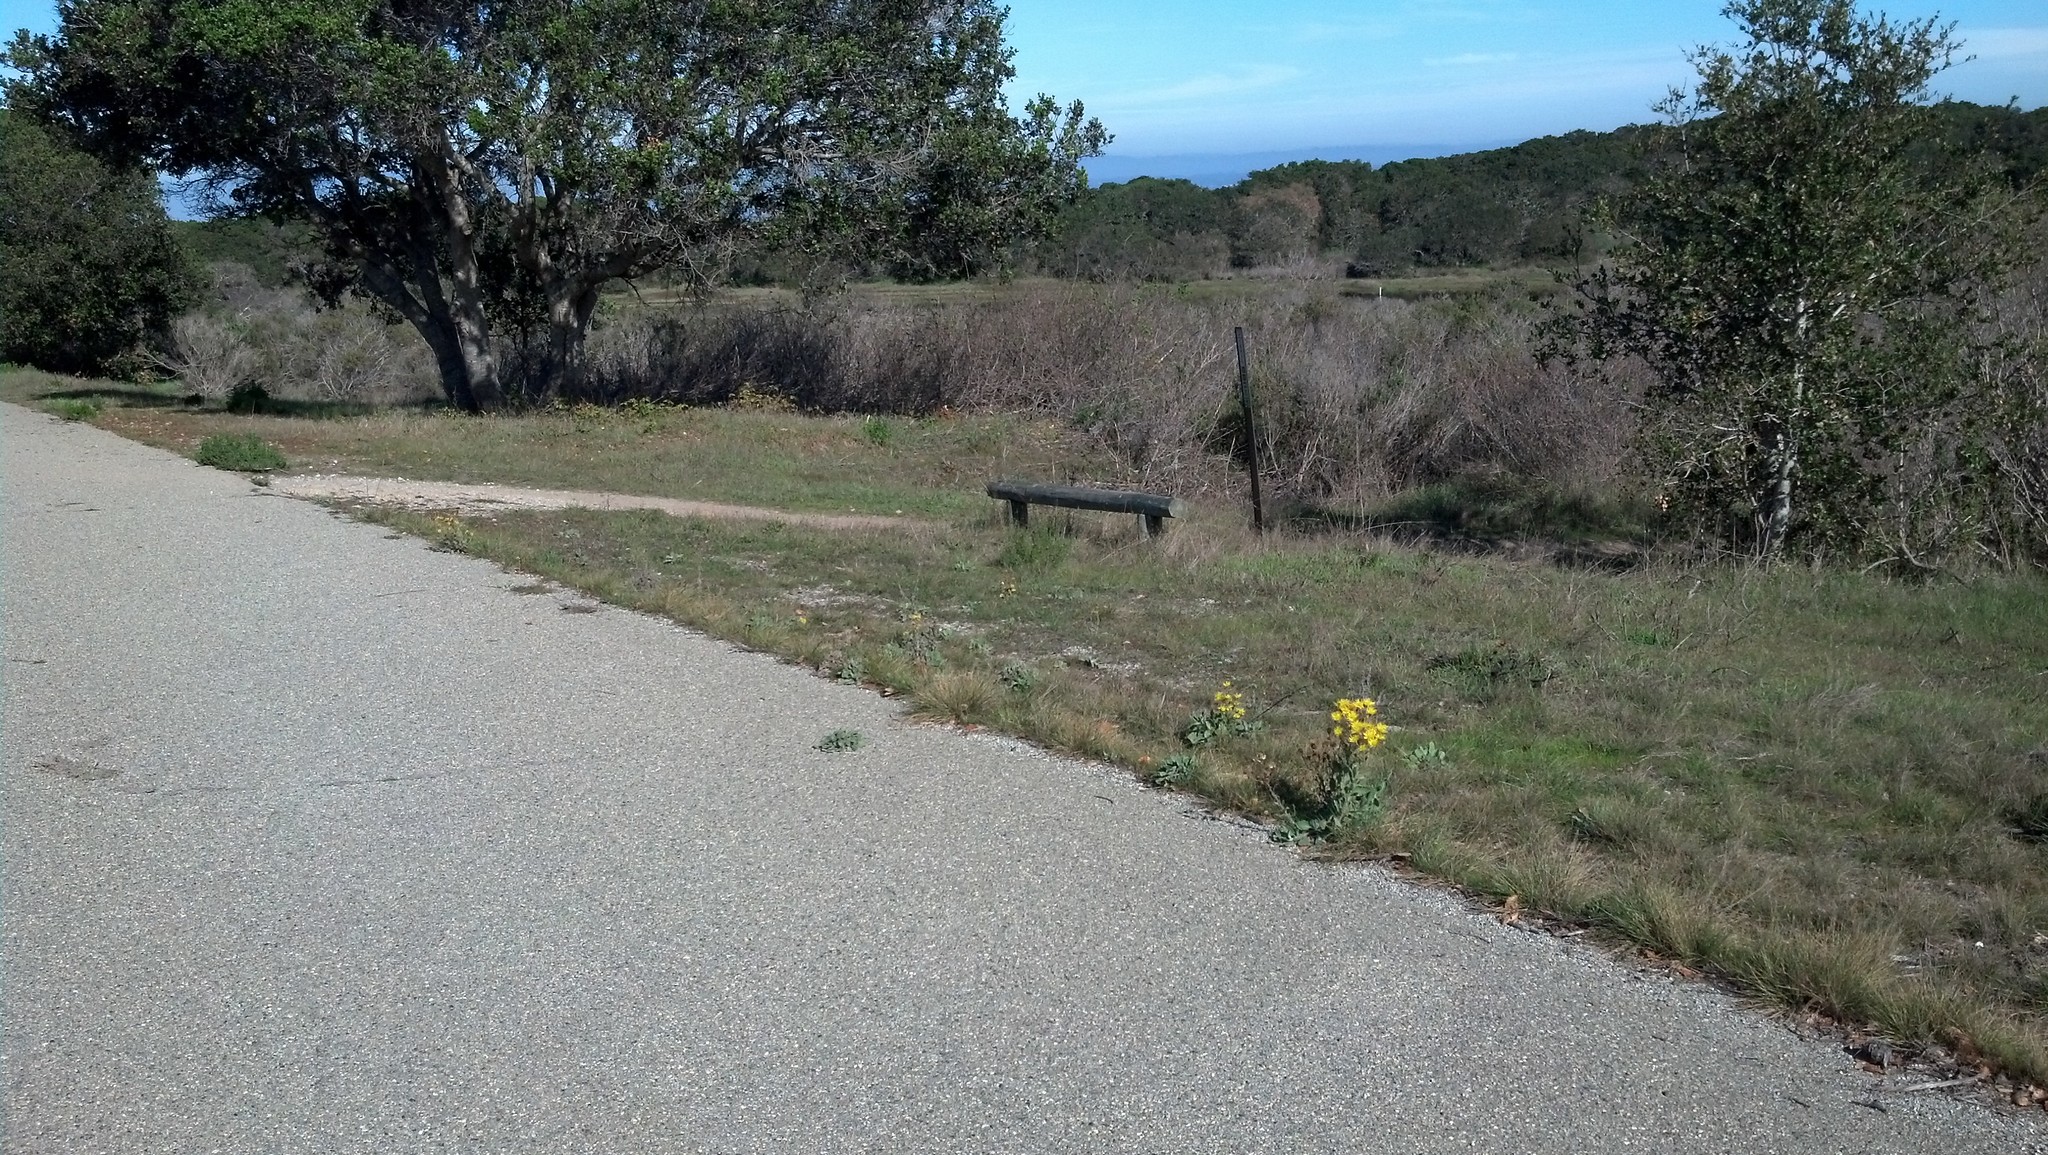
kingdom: Plantae
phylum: Tracheophyta
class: Magnoliopsida
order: Asterales
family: Asteraceae
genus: Heterotheca
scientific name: Heterotheca grandiflora
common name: Telegraphweed
